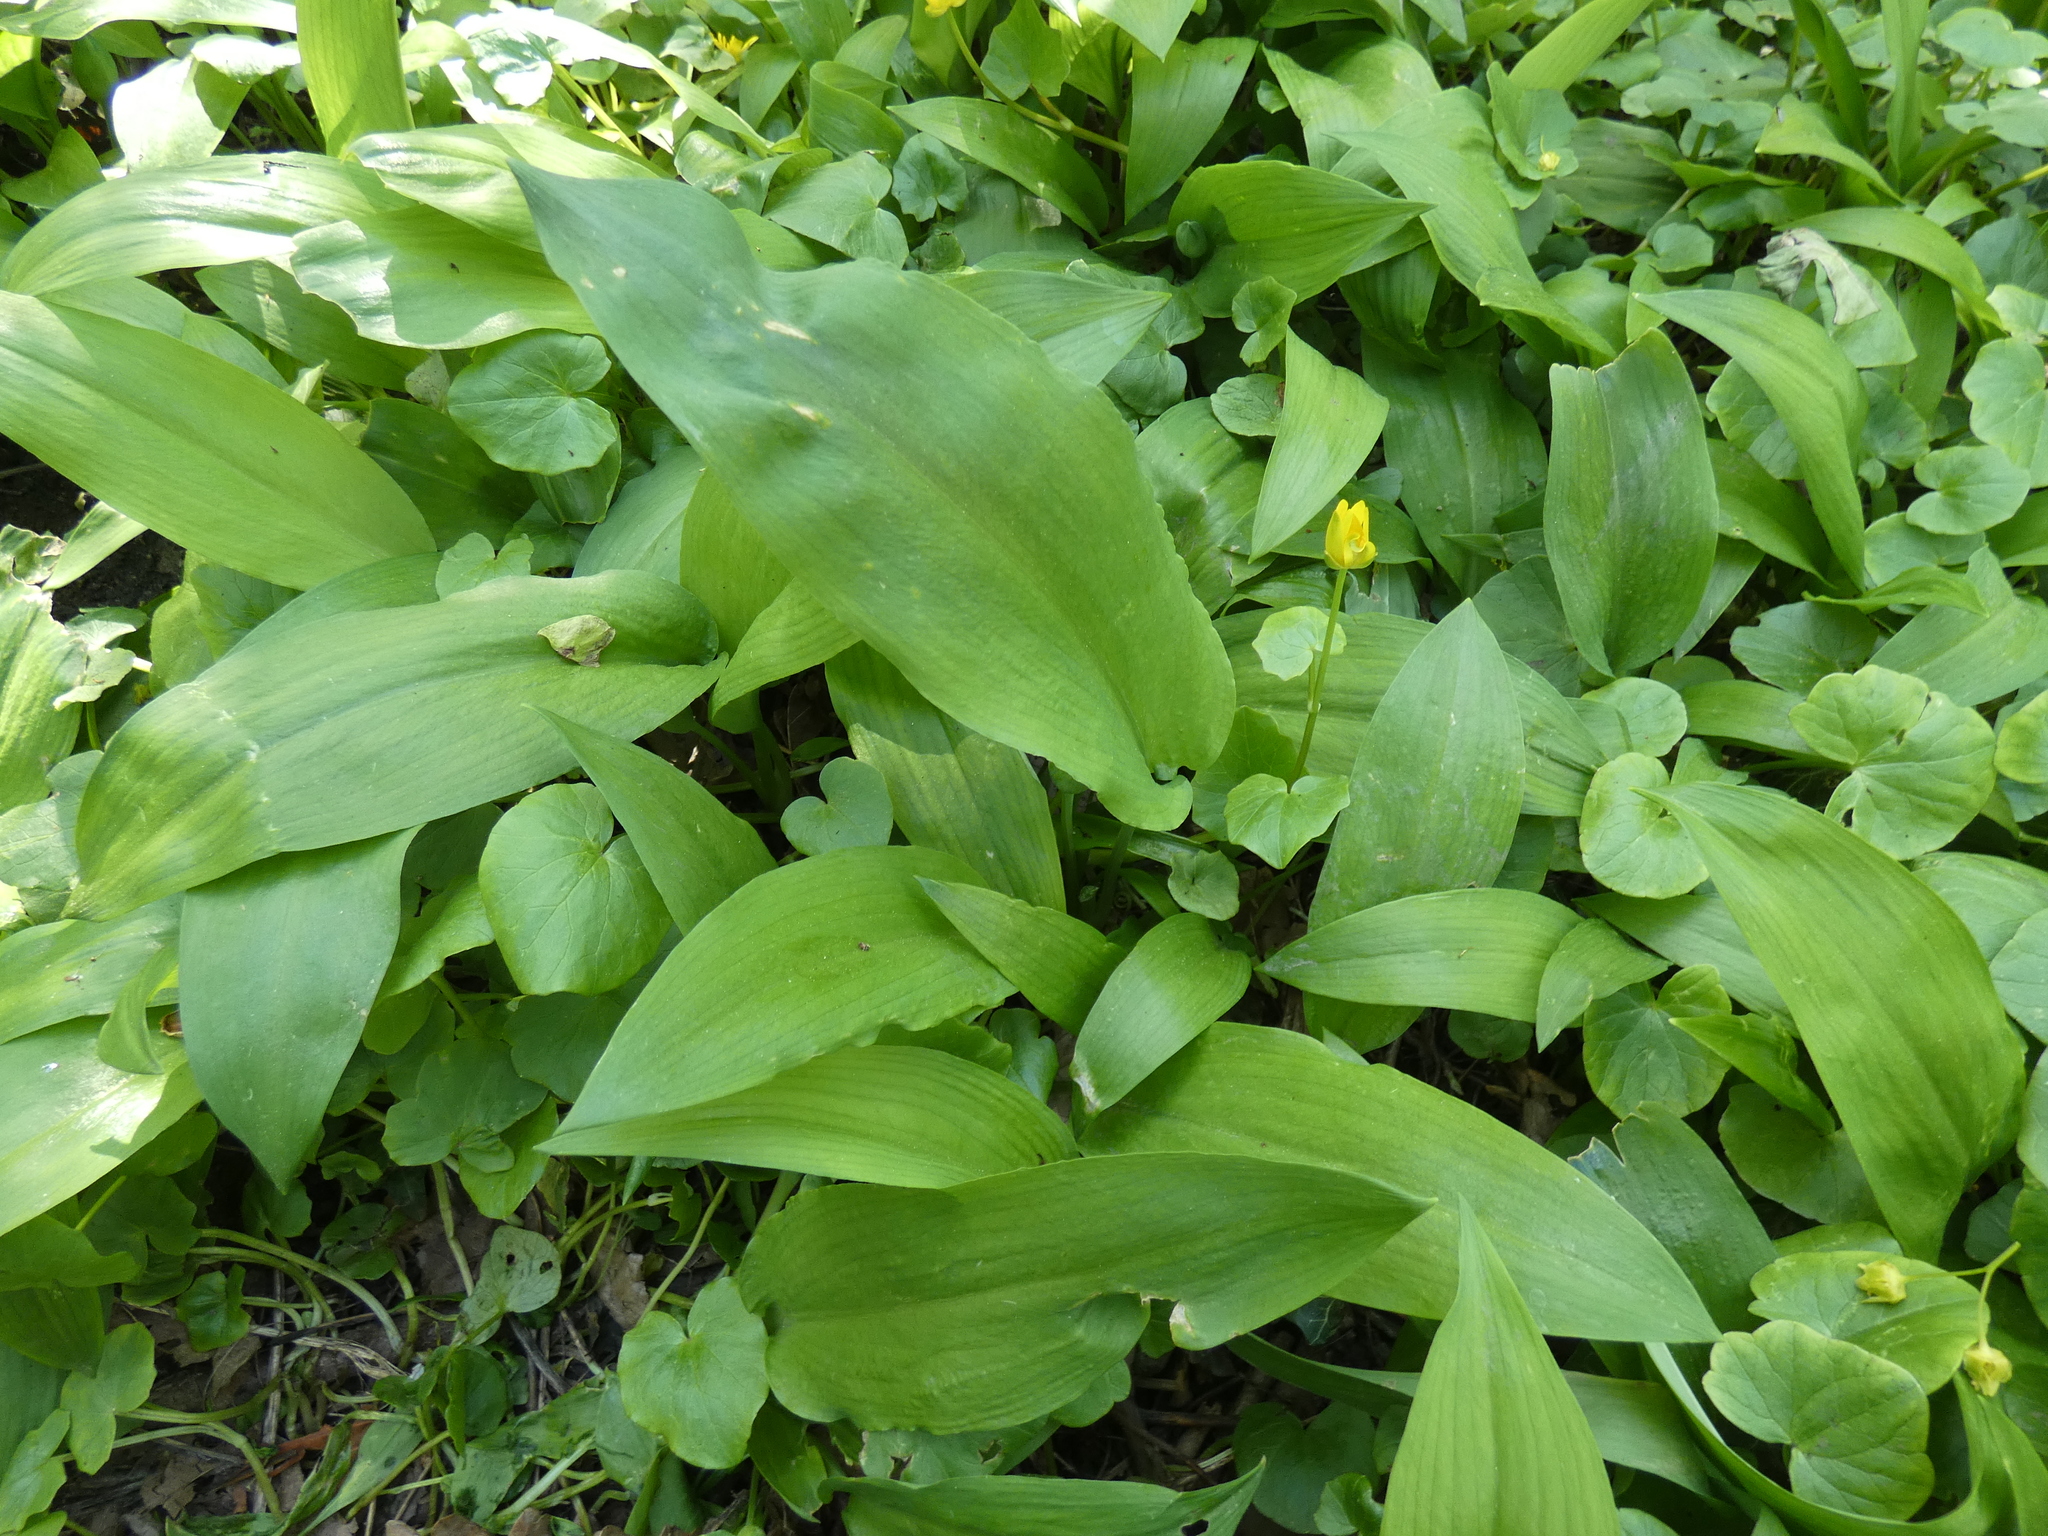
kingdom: Plantae
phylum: Tracheophyta
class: Liliopsida
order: Asparagales
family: Amaryllidaceae
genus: Allium
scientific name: Allium ursinum
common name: Ramsons
